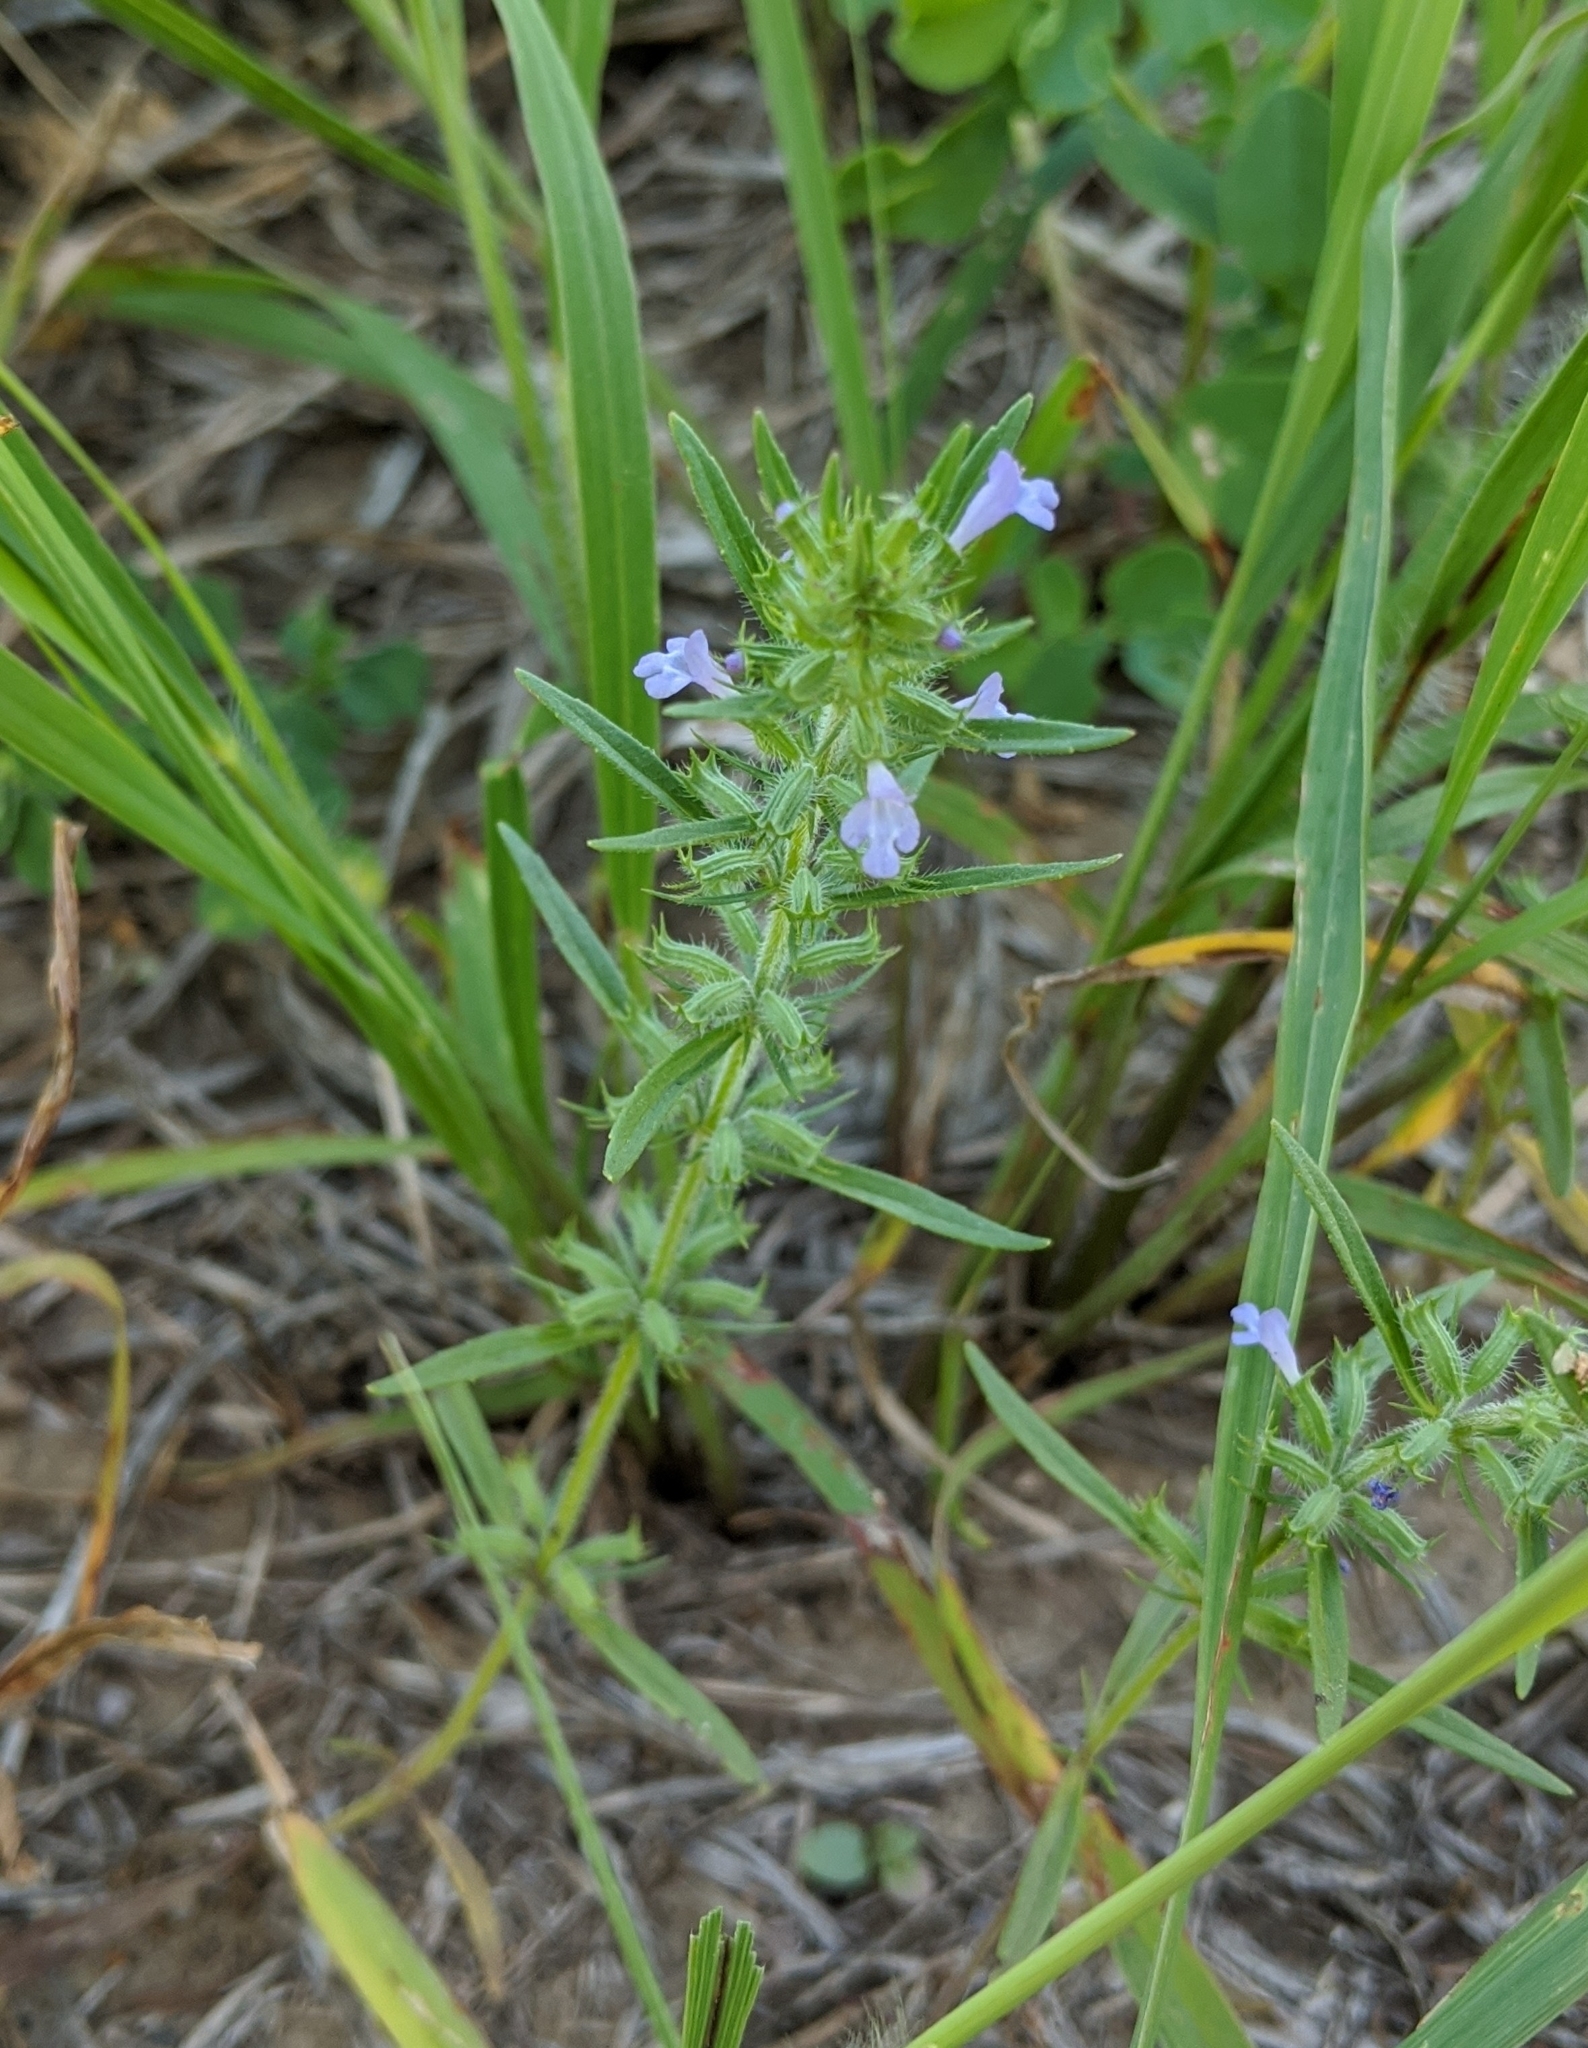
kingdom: Plantae
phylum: Tracheophyta
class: Magnoliopsida
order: Lamiales
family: Lamiaceae
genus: Hedeoma
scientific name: Hedeoma hispida
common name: Mock pennyroyal
